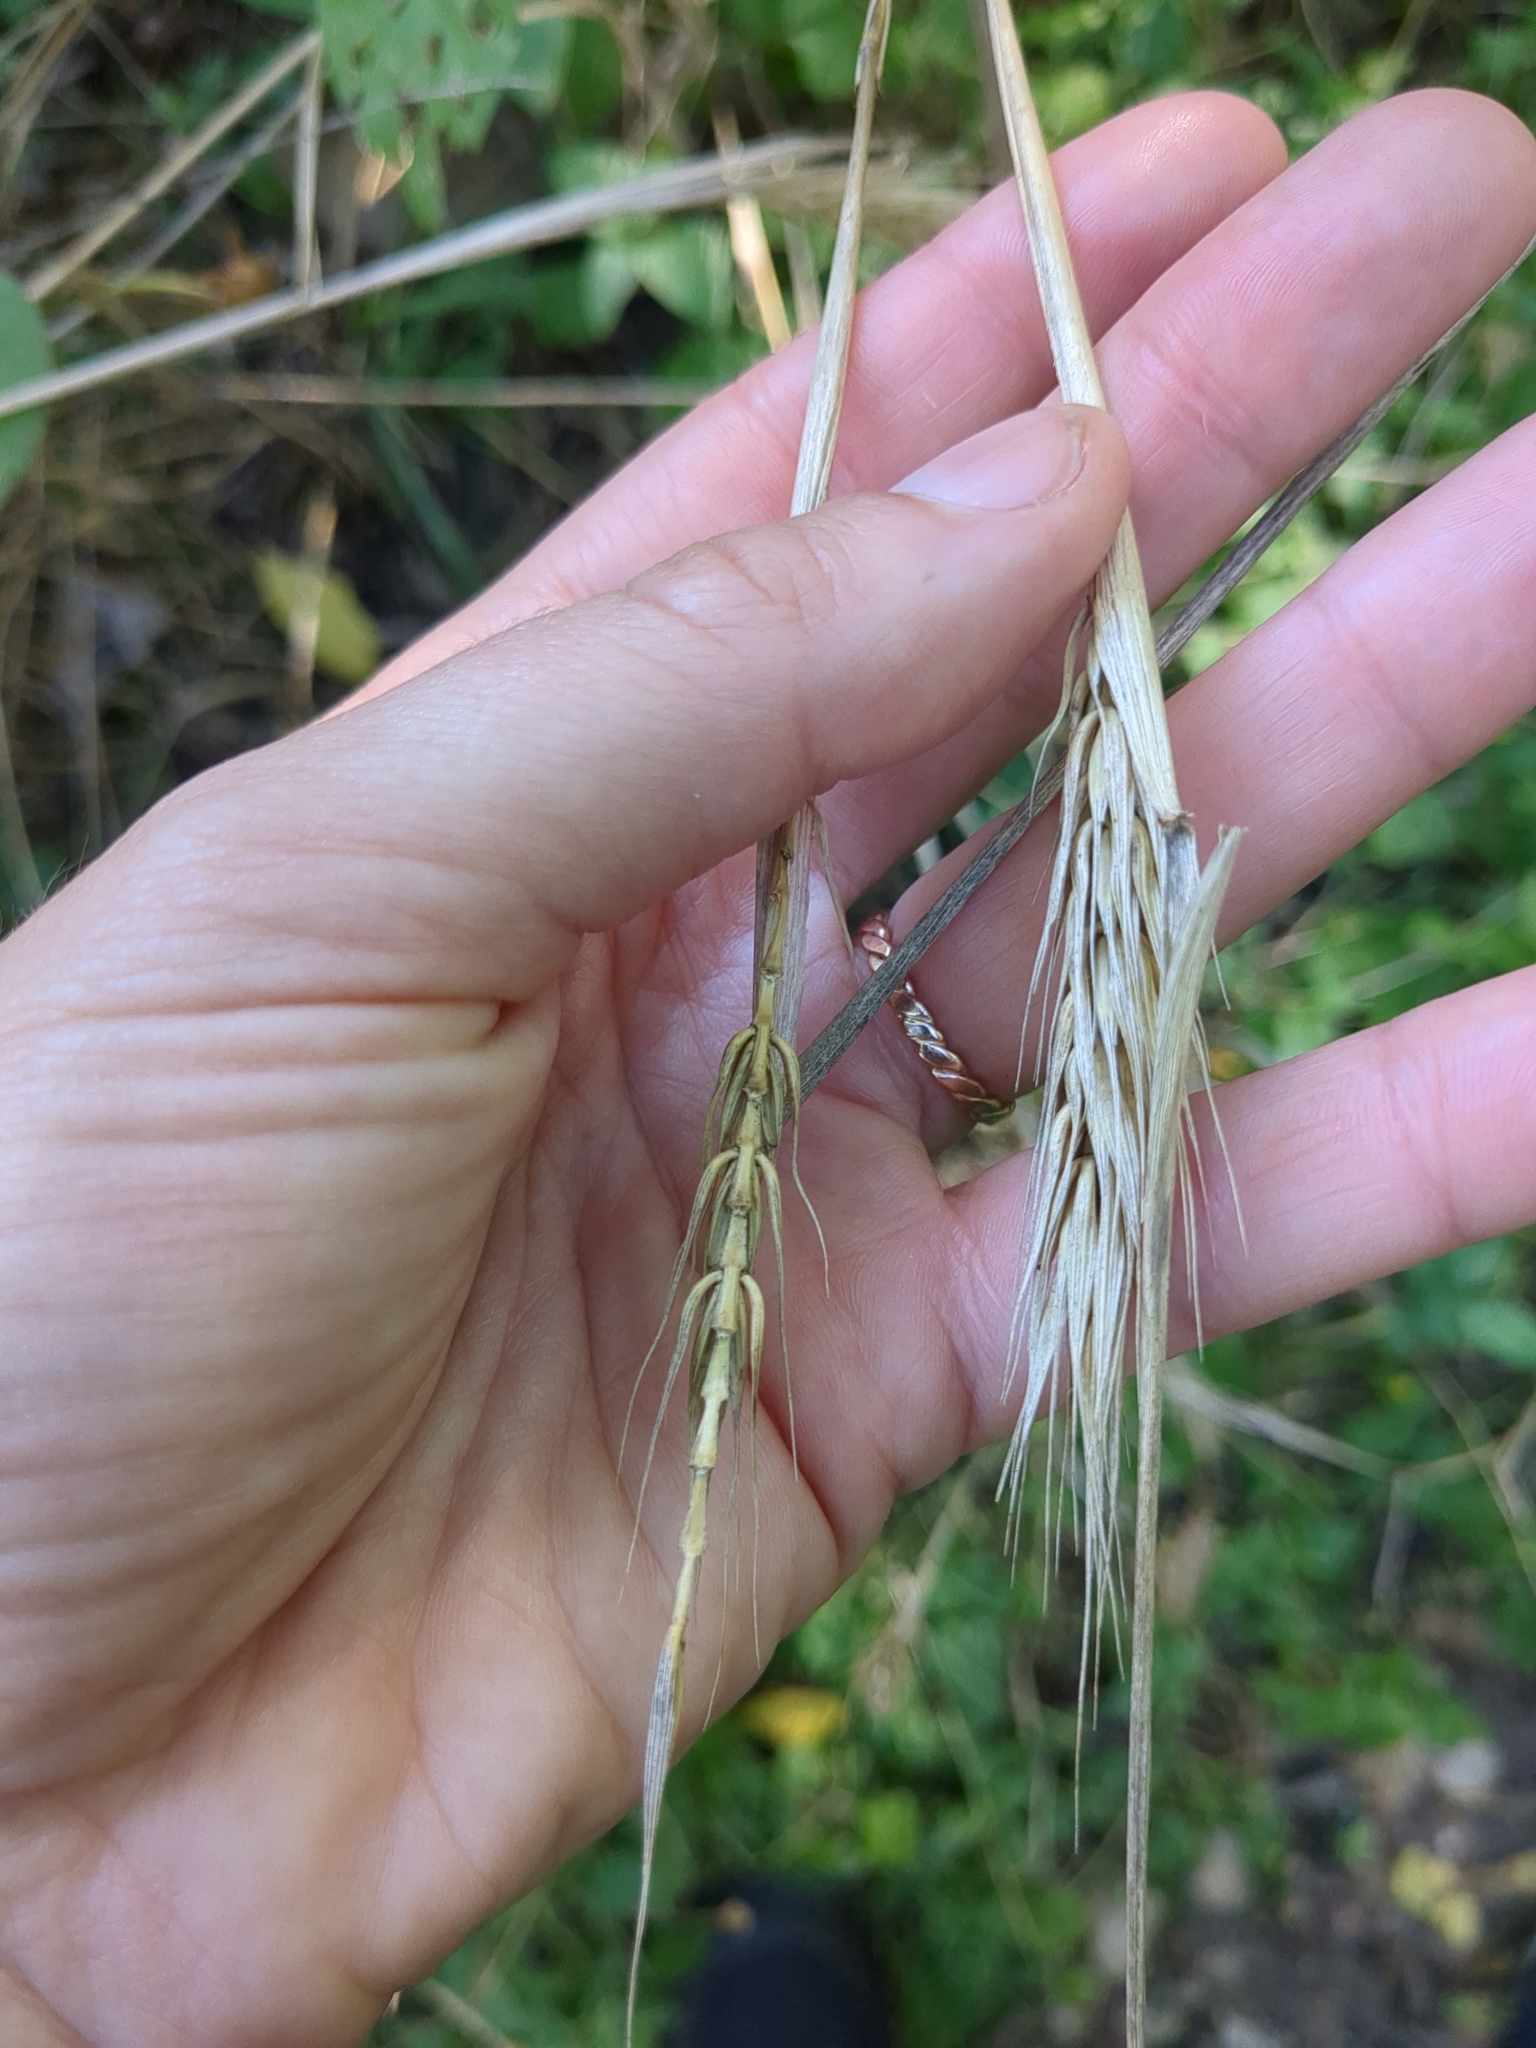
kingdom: Plantae
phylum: Tracheophyta
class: Liliopsida
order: Poales
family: Poaceae
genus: Elymus
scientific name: Elymus virginicus
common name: Common eastern wildrye
